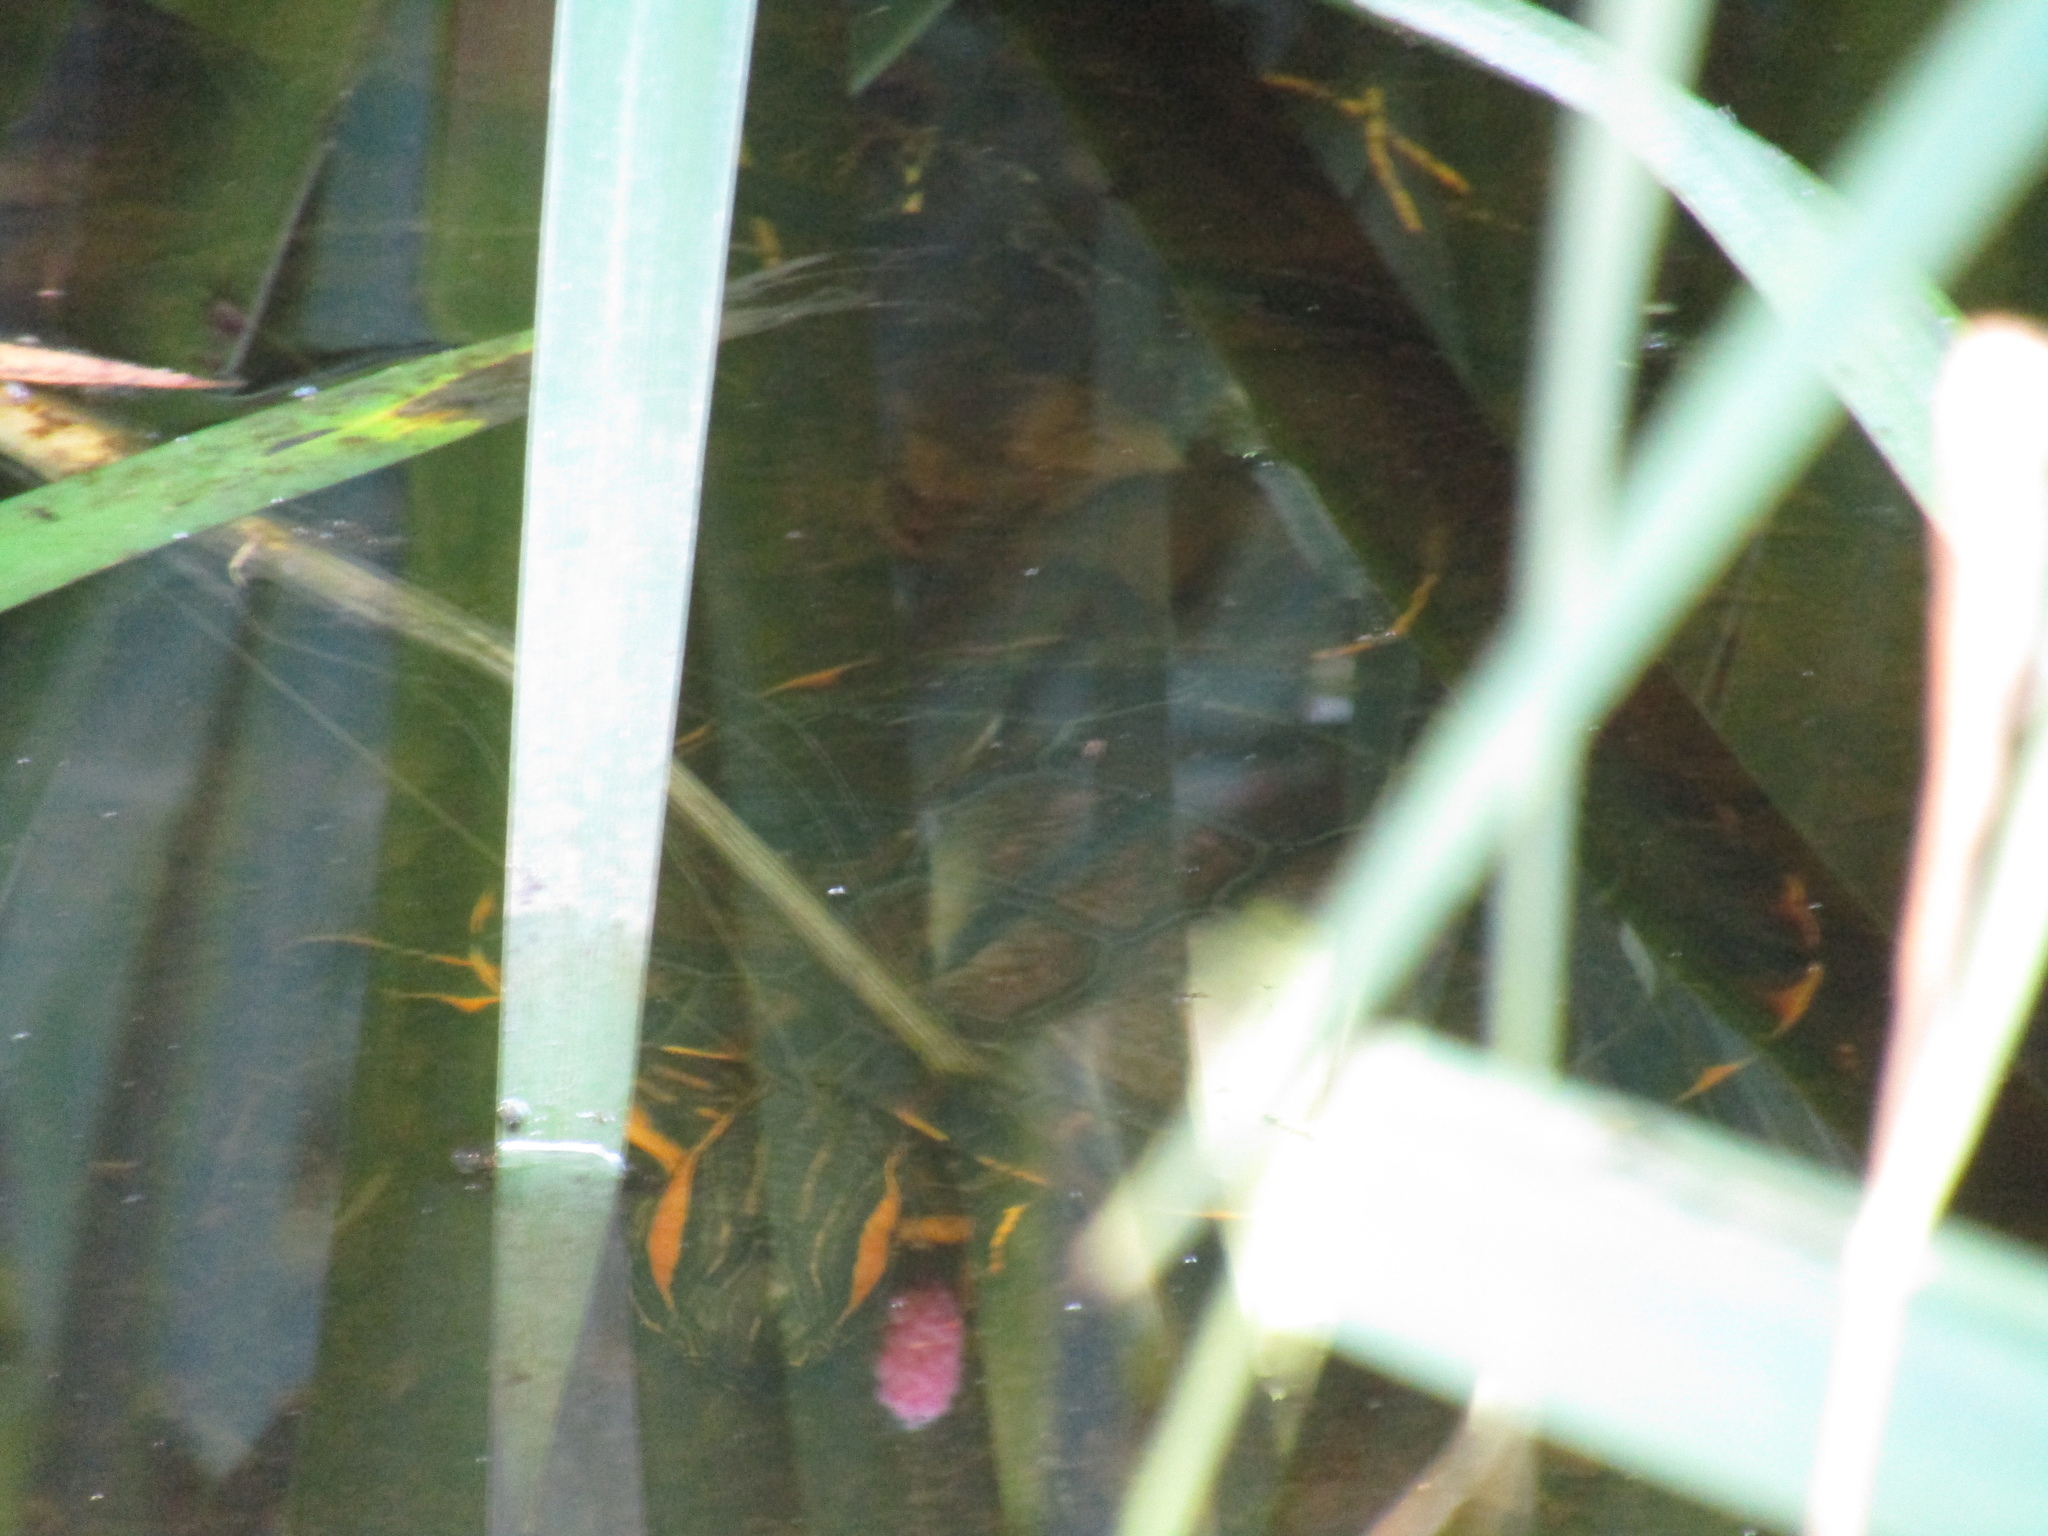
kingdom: Animalia
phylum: Chordata
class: Testudines
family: Emydidae
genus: Trachemys
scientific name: Trachemys dorbigni
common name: Black-bellied slider
